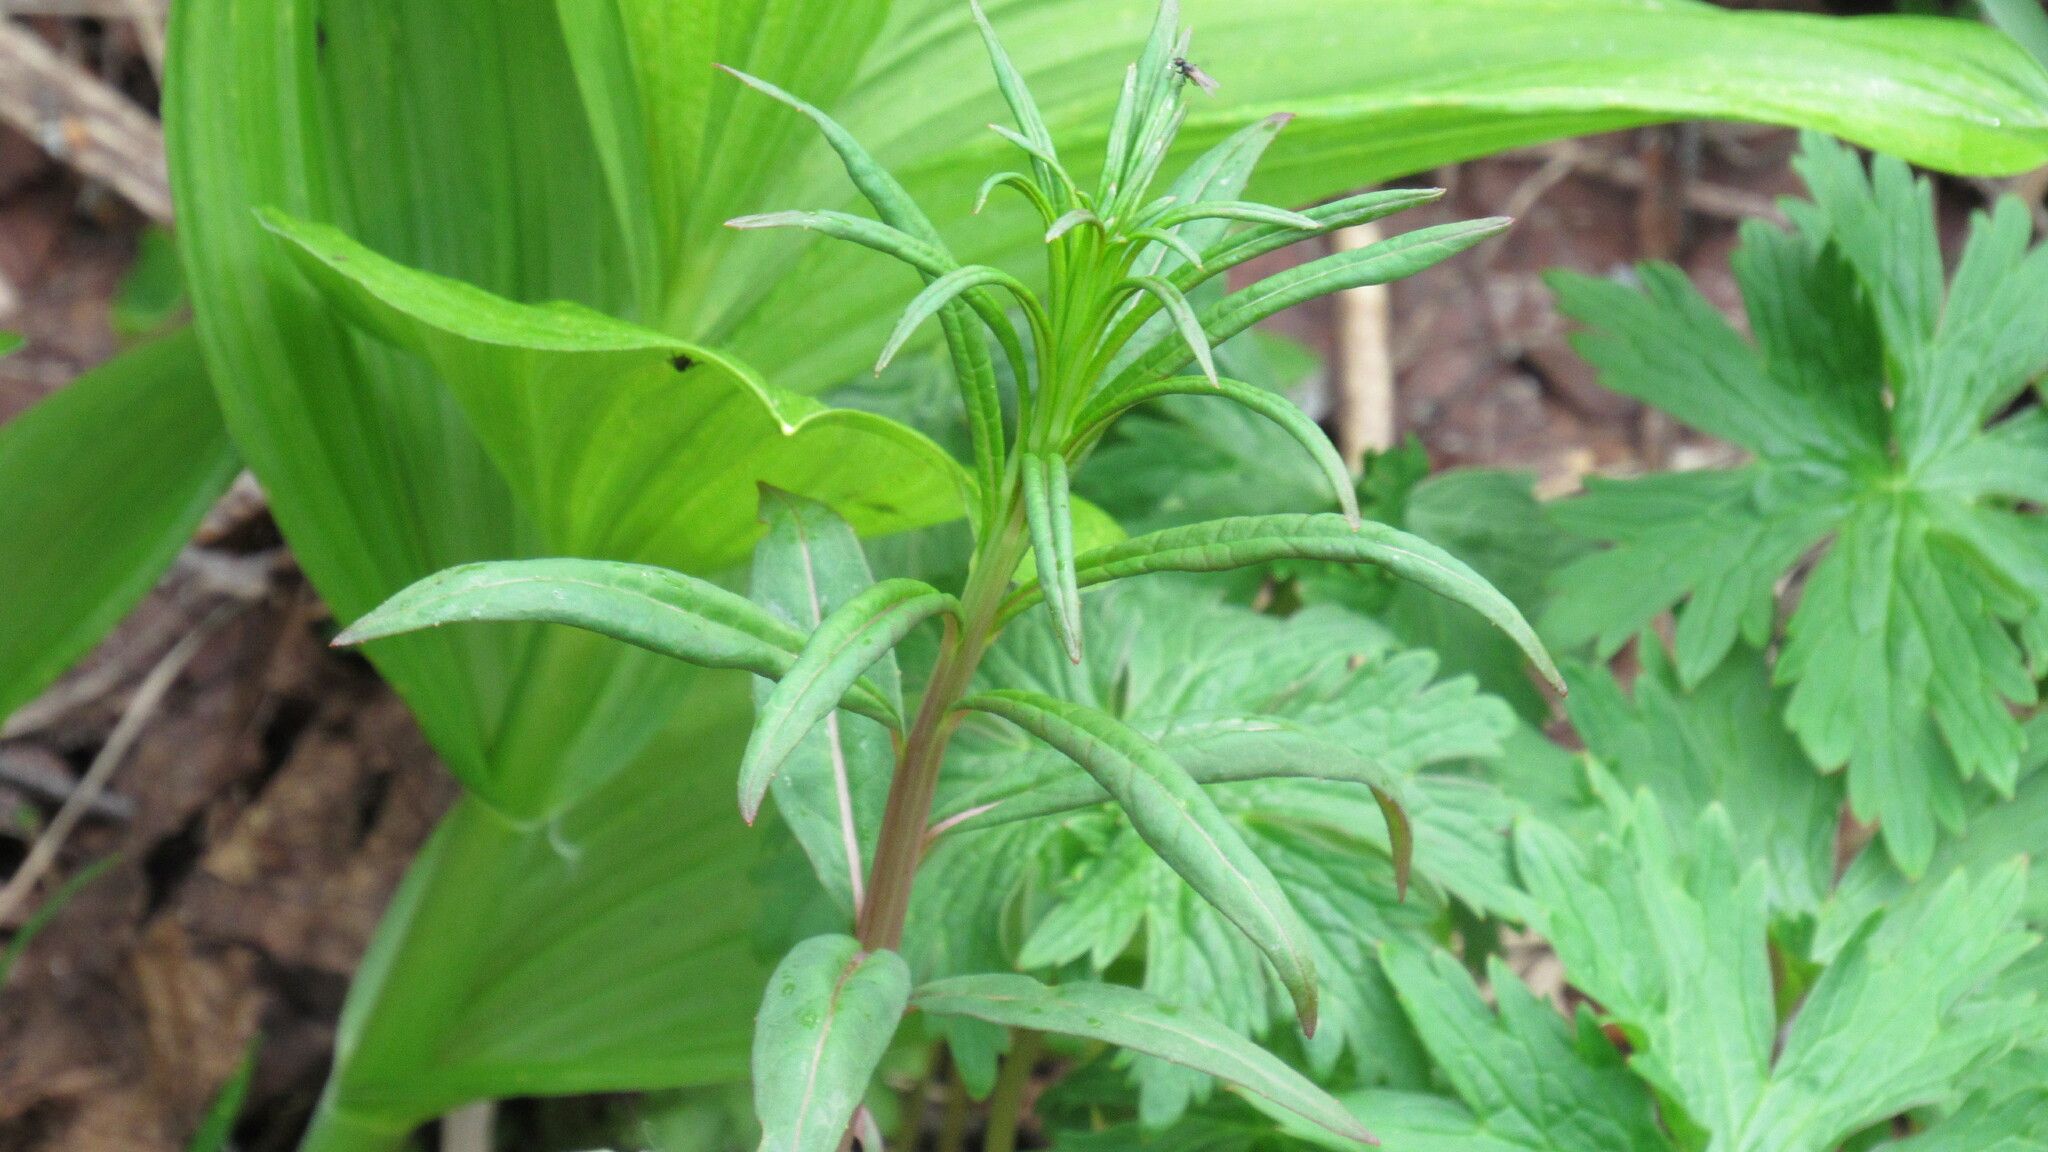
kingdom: Plantae
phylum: Tracheophyta
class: Magnoliopsida
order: Myrtales
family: Onagraceae
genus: Chamaenerion
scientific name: Chamaenerion angustifolium
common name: Fireweed
